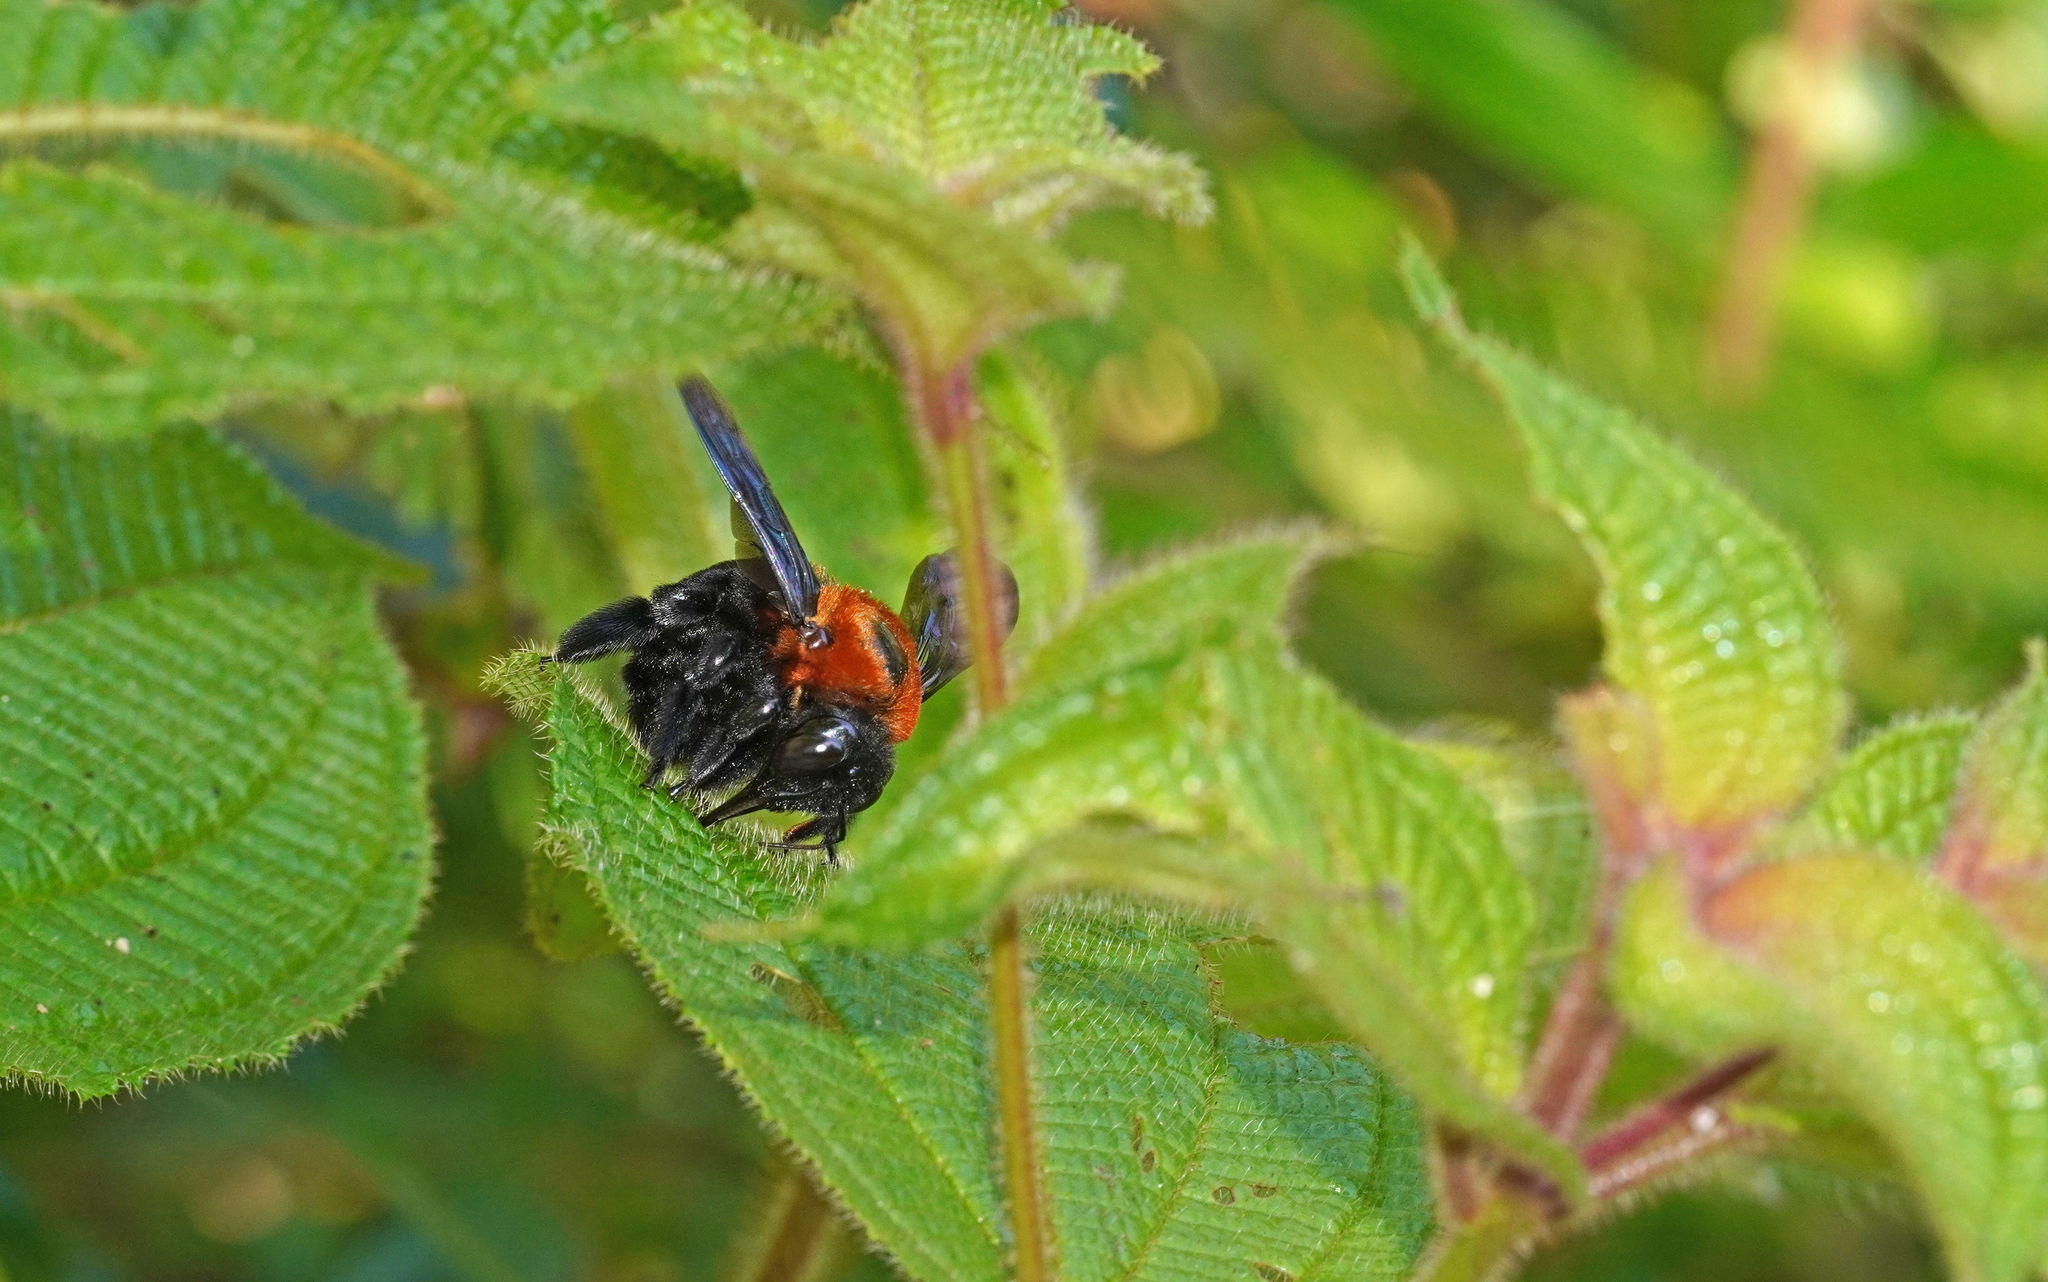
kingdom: Animalia
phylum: Arthropoda
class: Insecta
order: Hymenoptera
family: Apidae
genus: Xylocopa
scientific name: Xylocopa similis
